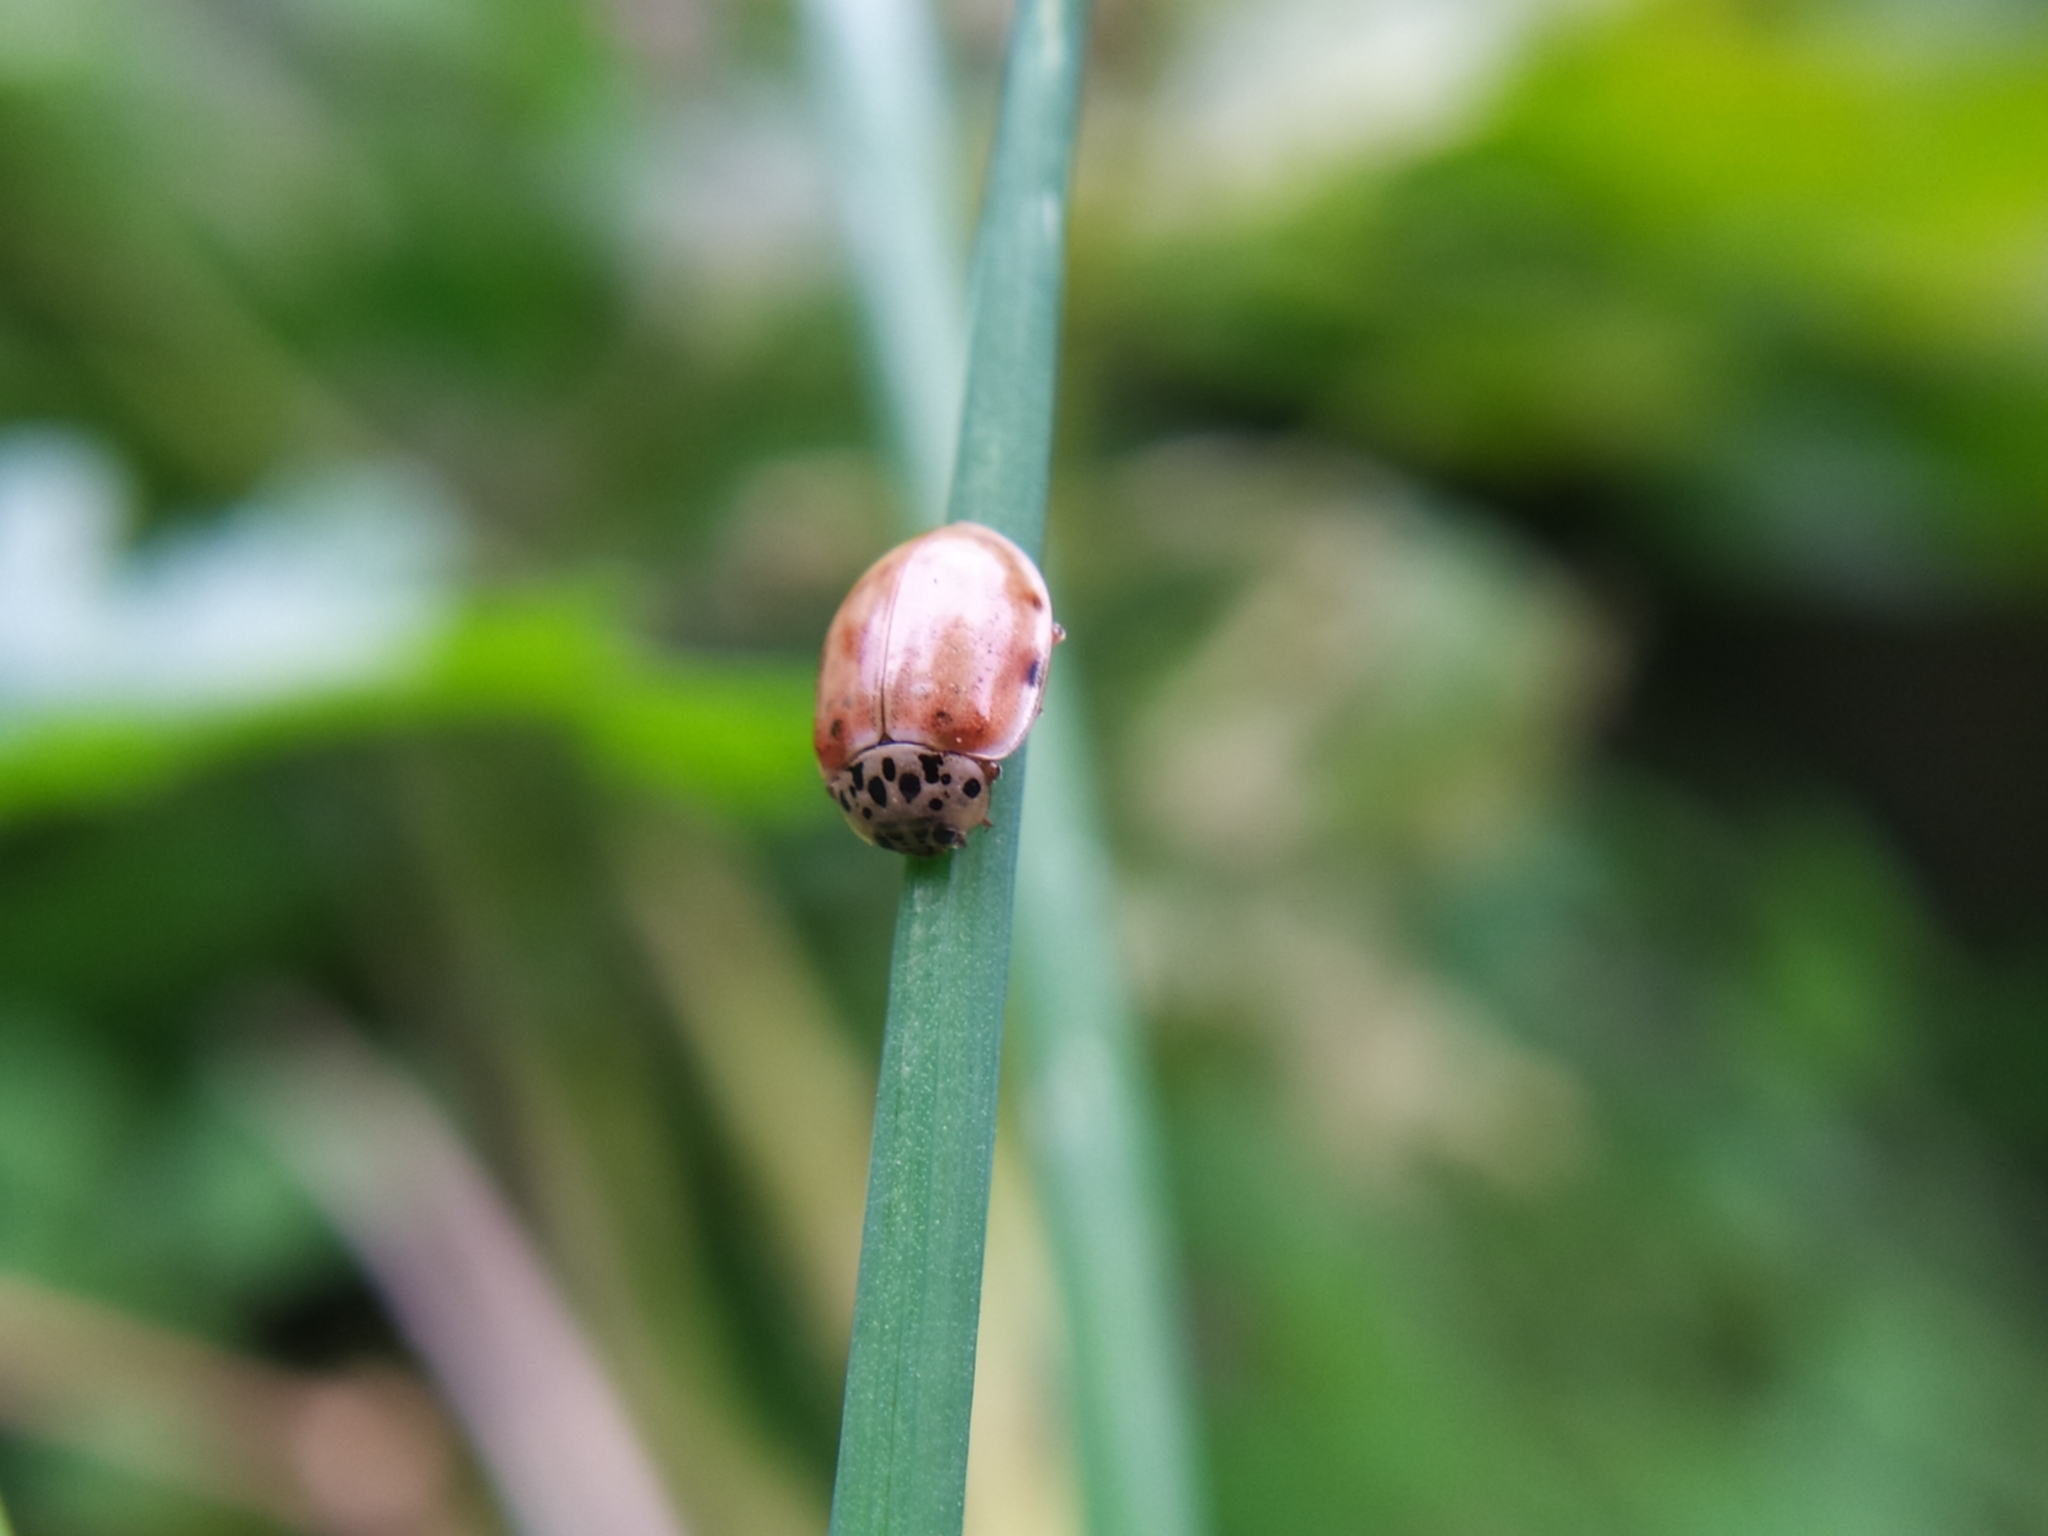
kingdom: Animalia
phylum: Arthropoda
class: Insecta
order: Coleoptera
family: Coccinellidae
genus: Harmonia
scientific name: Harmonia quadripunctata
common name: Cream-streaked ladybird
